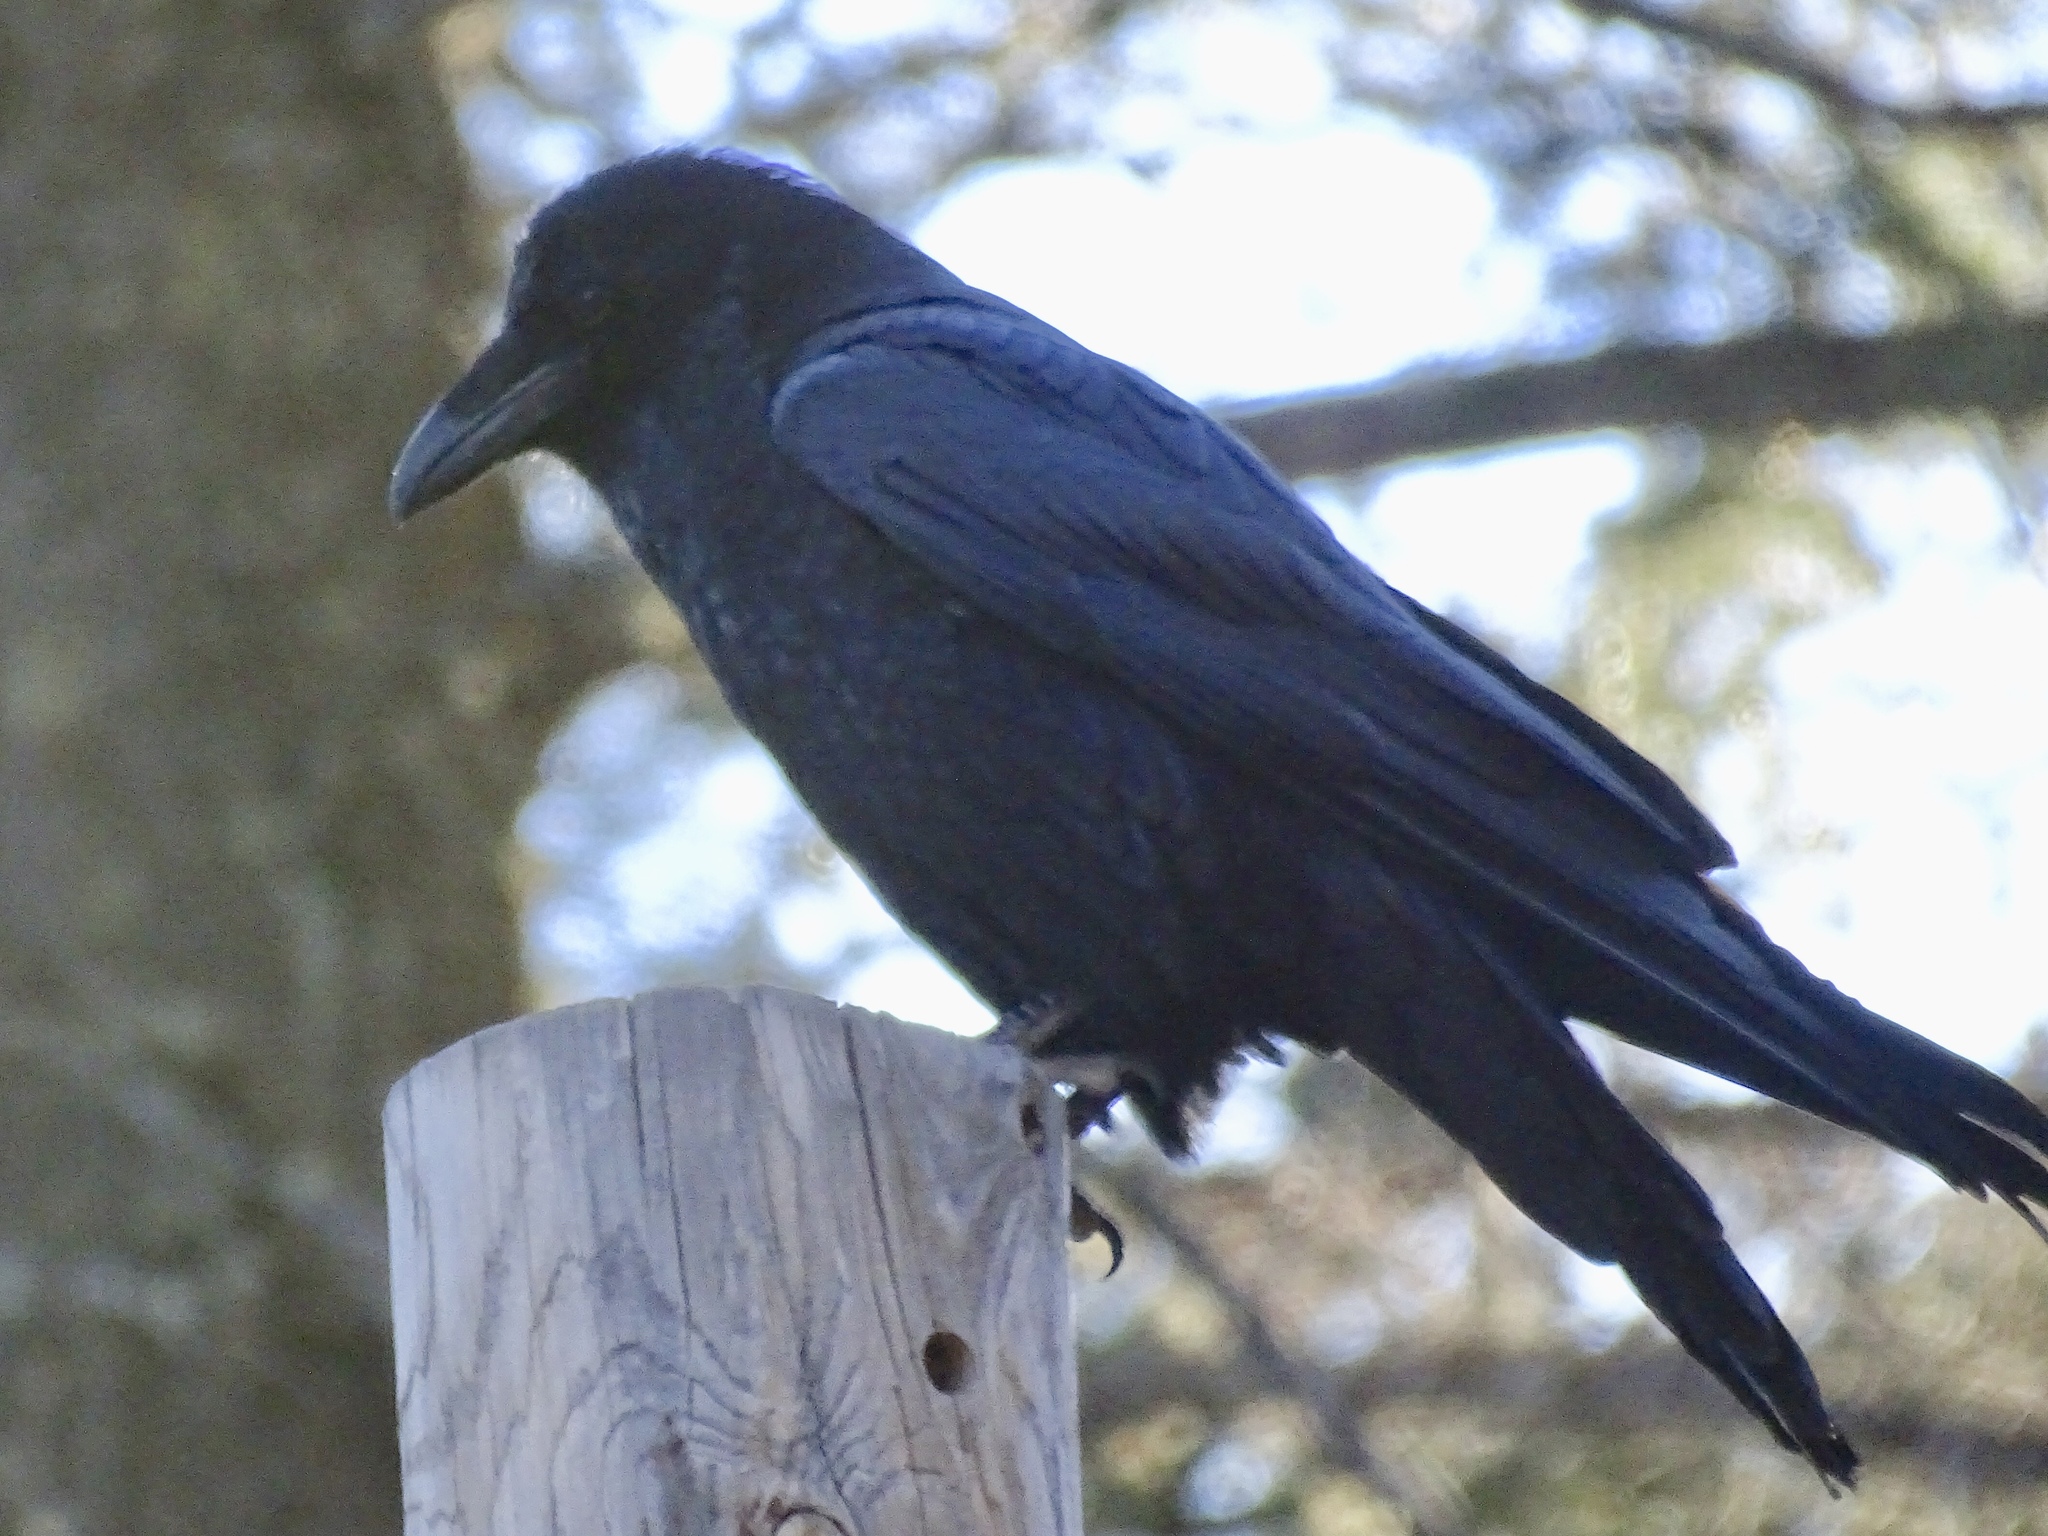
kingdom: Animalia
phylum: Chordata
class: Aves
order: Passeriformes
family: Corvidae
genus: Corvus
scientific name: Corvus corax
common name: Common raven
